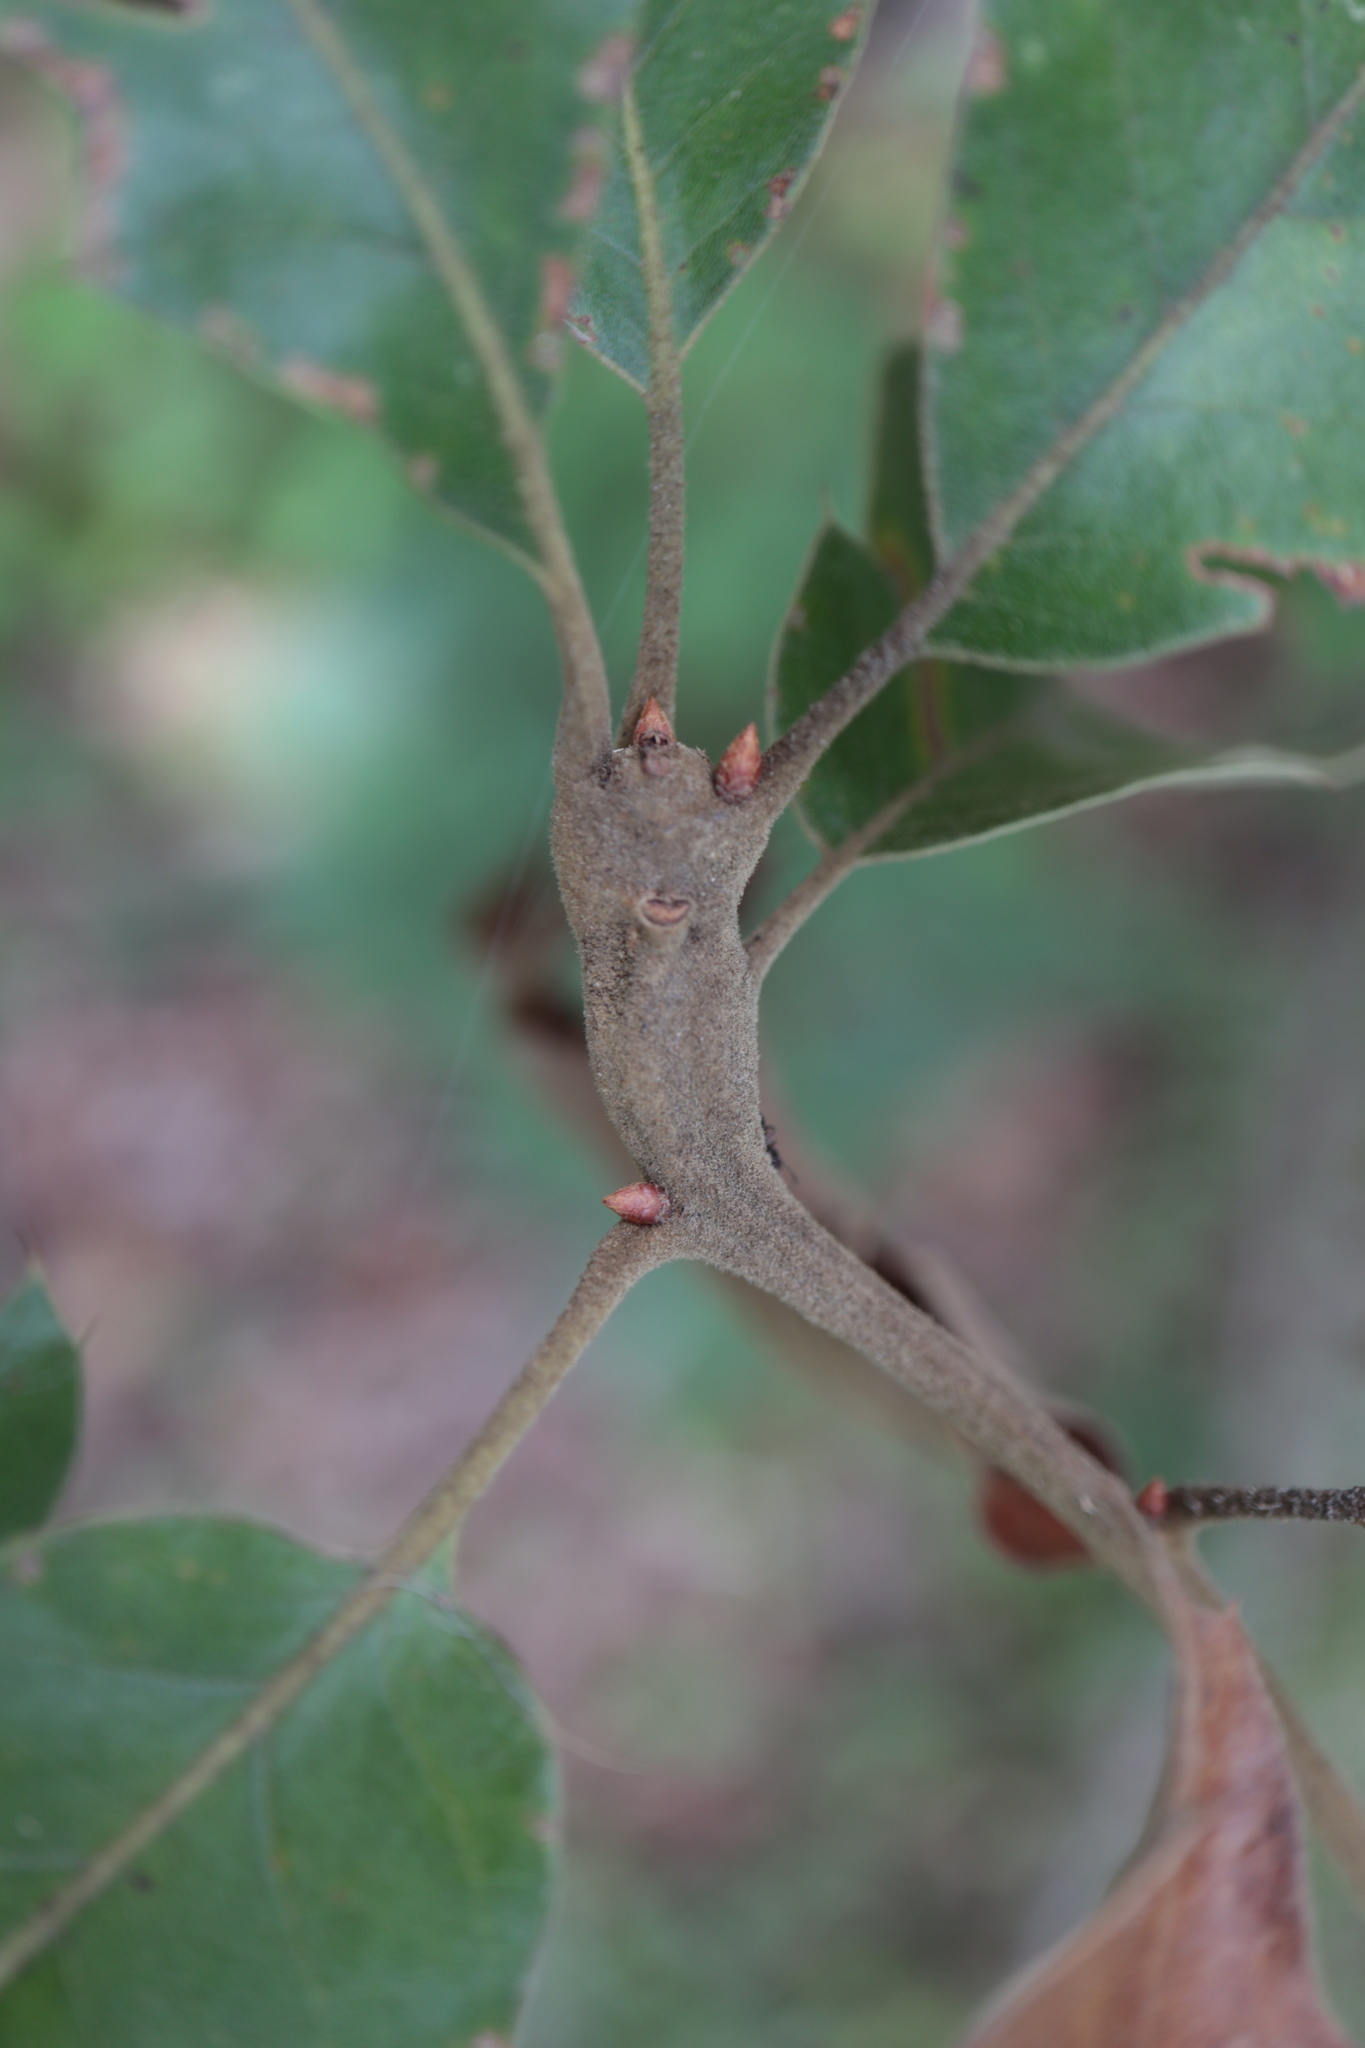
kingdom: Animalia
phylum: Arthropoda
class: Insecta
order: Hymenoptera
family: Cynipidae
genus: Zapatella
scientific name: Zapatella quercusphellos
